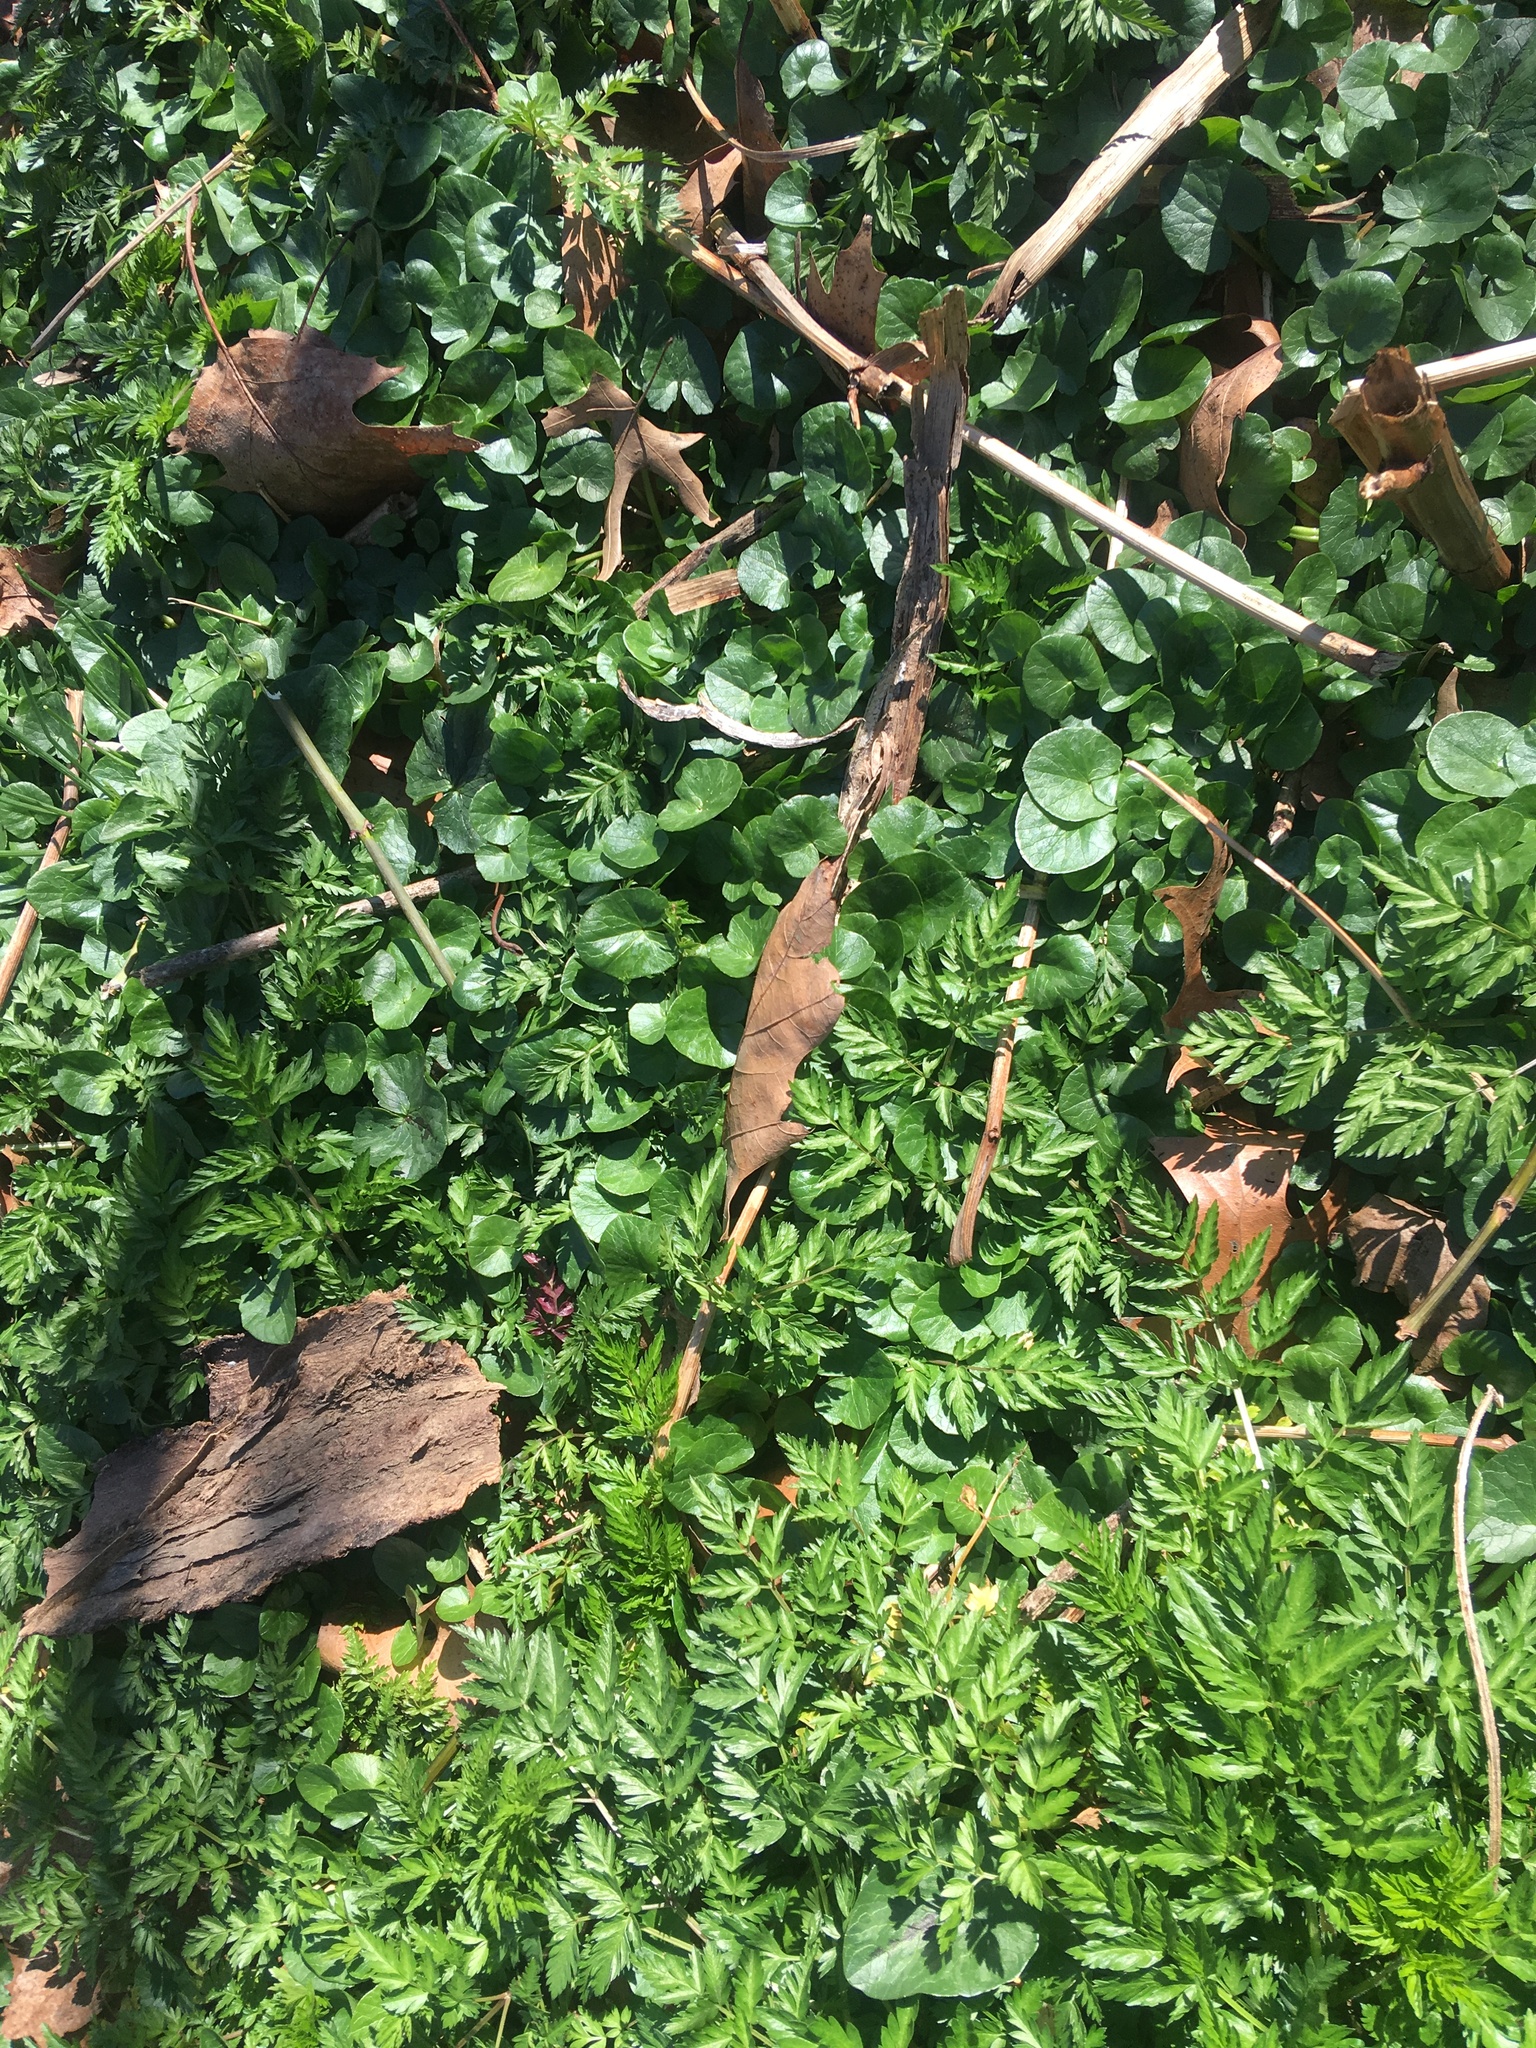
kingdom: Plantae
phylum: Tracheophyta
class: Magnoliopsida
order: Ranunculales
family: Ranunculaceae
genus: Ficaria
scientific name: Ficaria verna
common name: Lesser celandine
